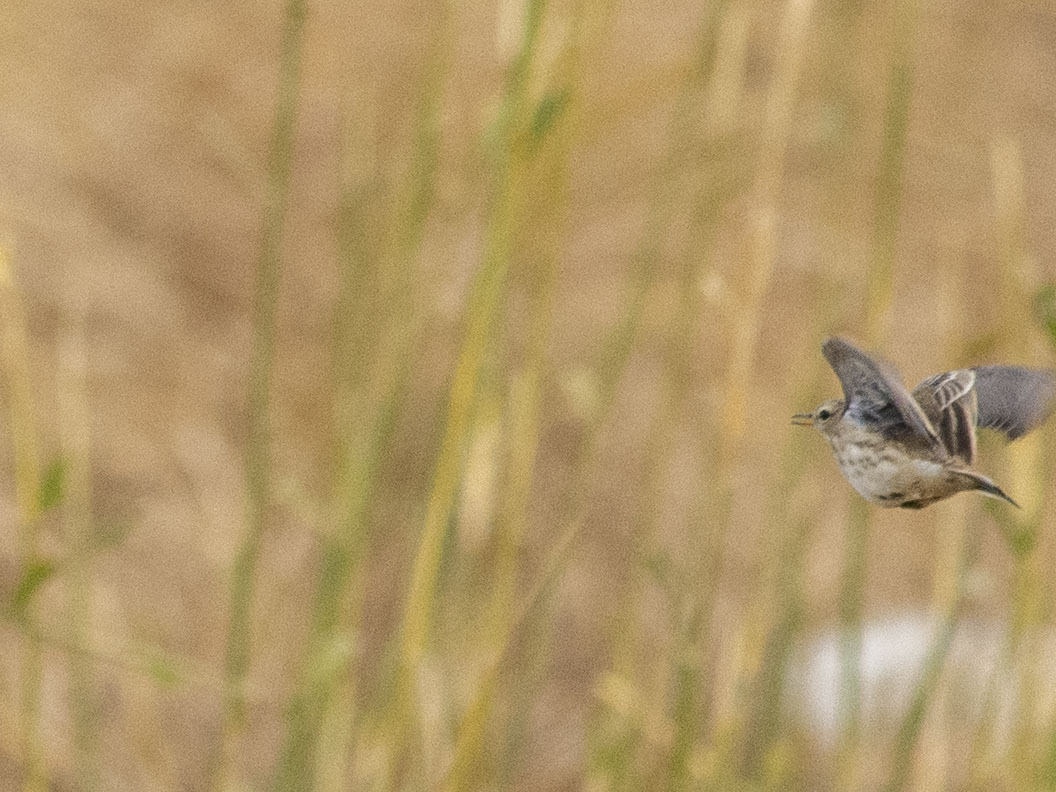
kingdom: Animalia
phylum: Chordata
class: Aves
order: Passeriformes
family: Motacillidae
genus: Anthus
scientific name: Anthus spinoletta
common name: Water pipit
